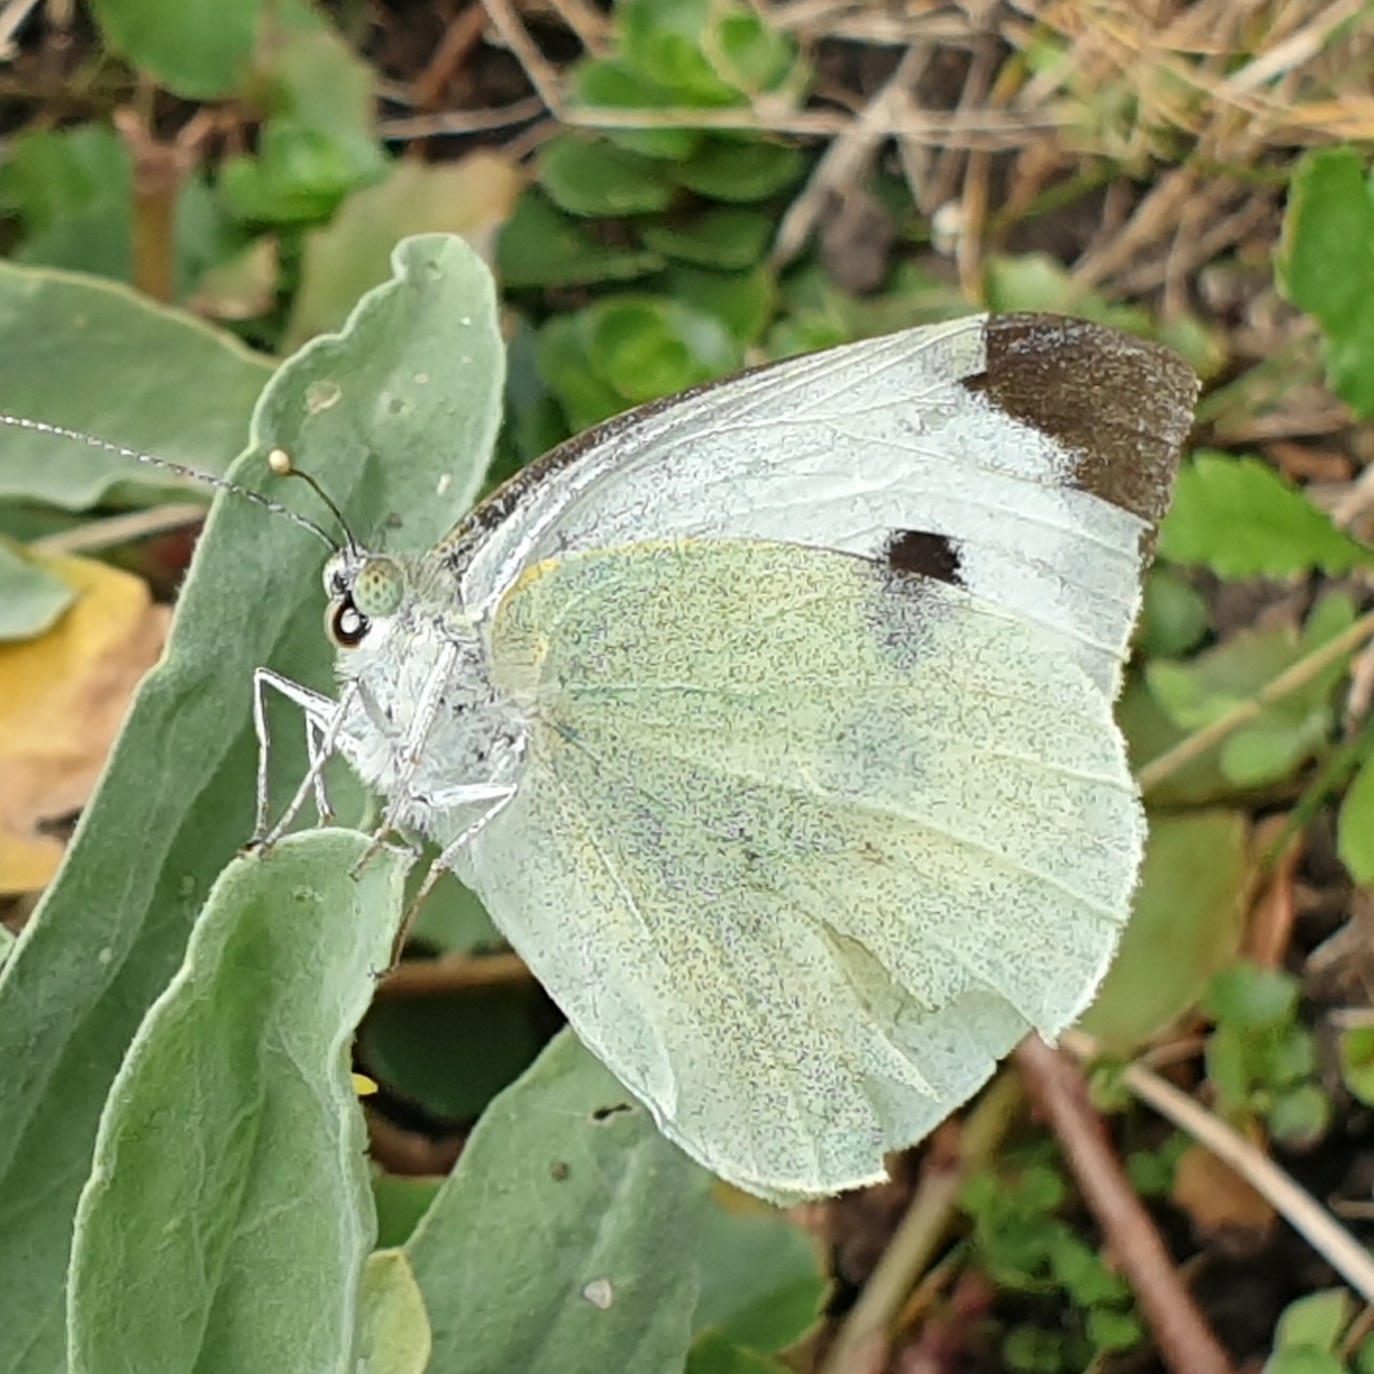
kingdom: Animalia
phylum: Arthropoda
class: Insecta
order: Lepidoptera
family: Pieridae
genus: Pieris
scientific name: Pieris brassicae
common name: Large white
